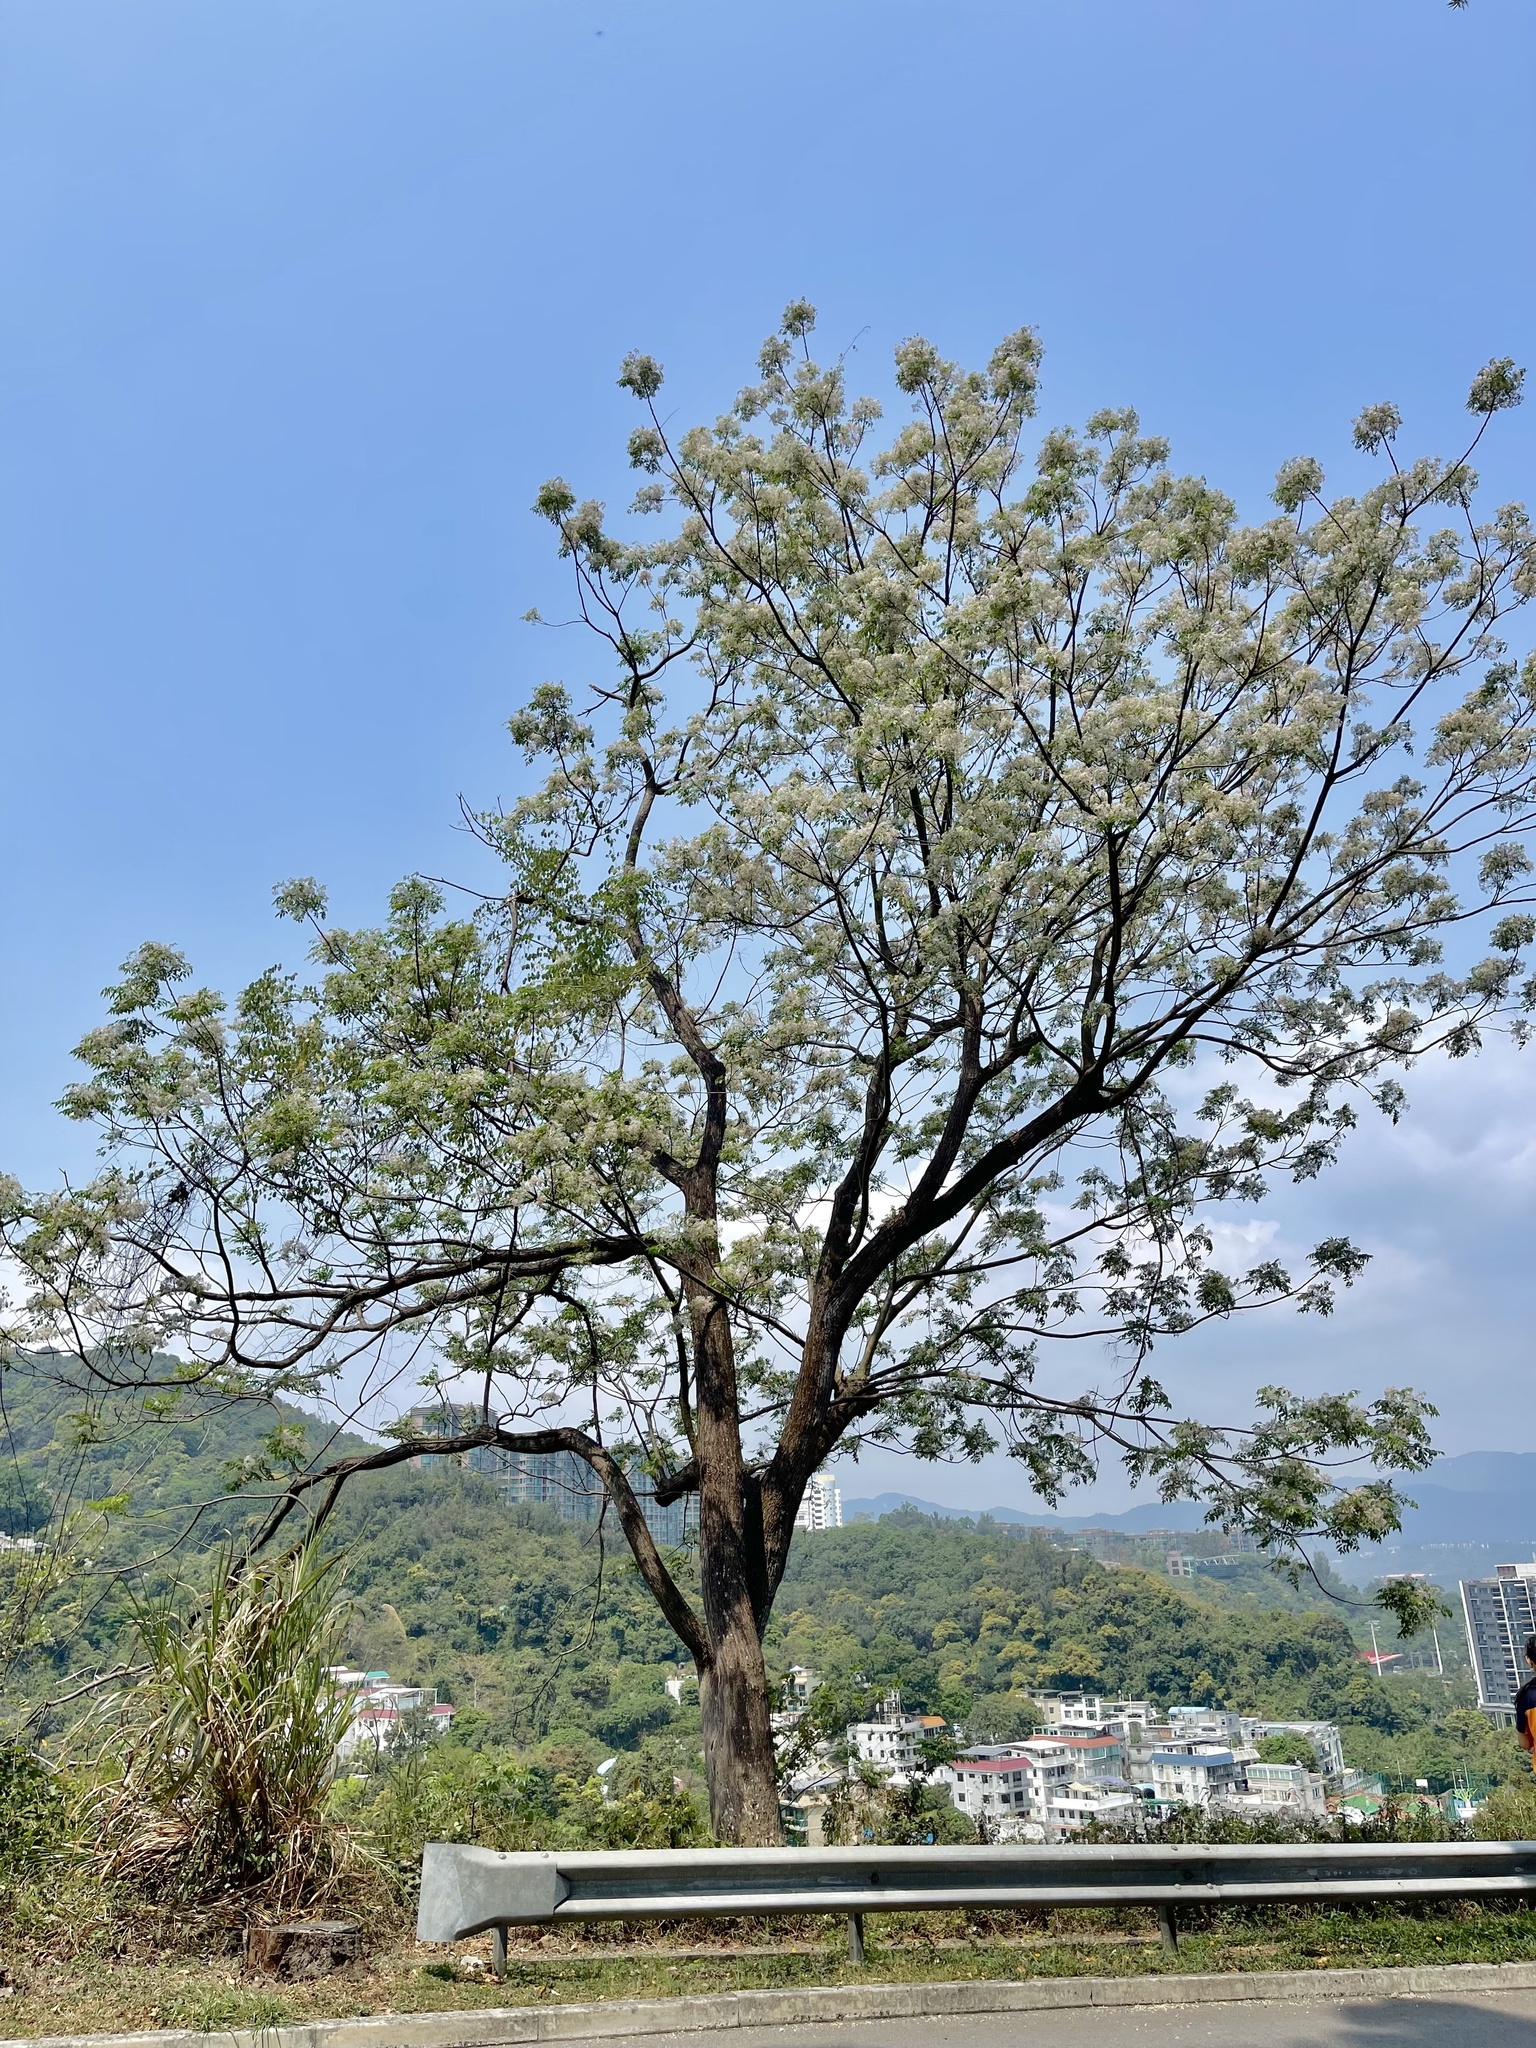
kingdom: Plantae
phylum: Tracheophyta
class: Magnoliopsida
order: Sapindales
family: Meliaceae
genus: Melia
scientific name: Melia azedarach
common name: Chinaberrytree
